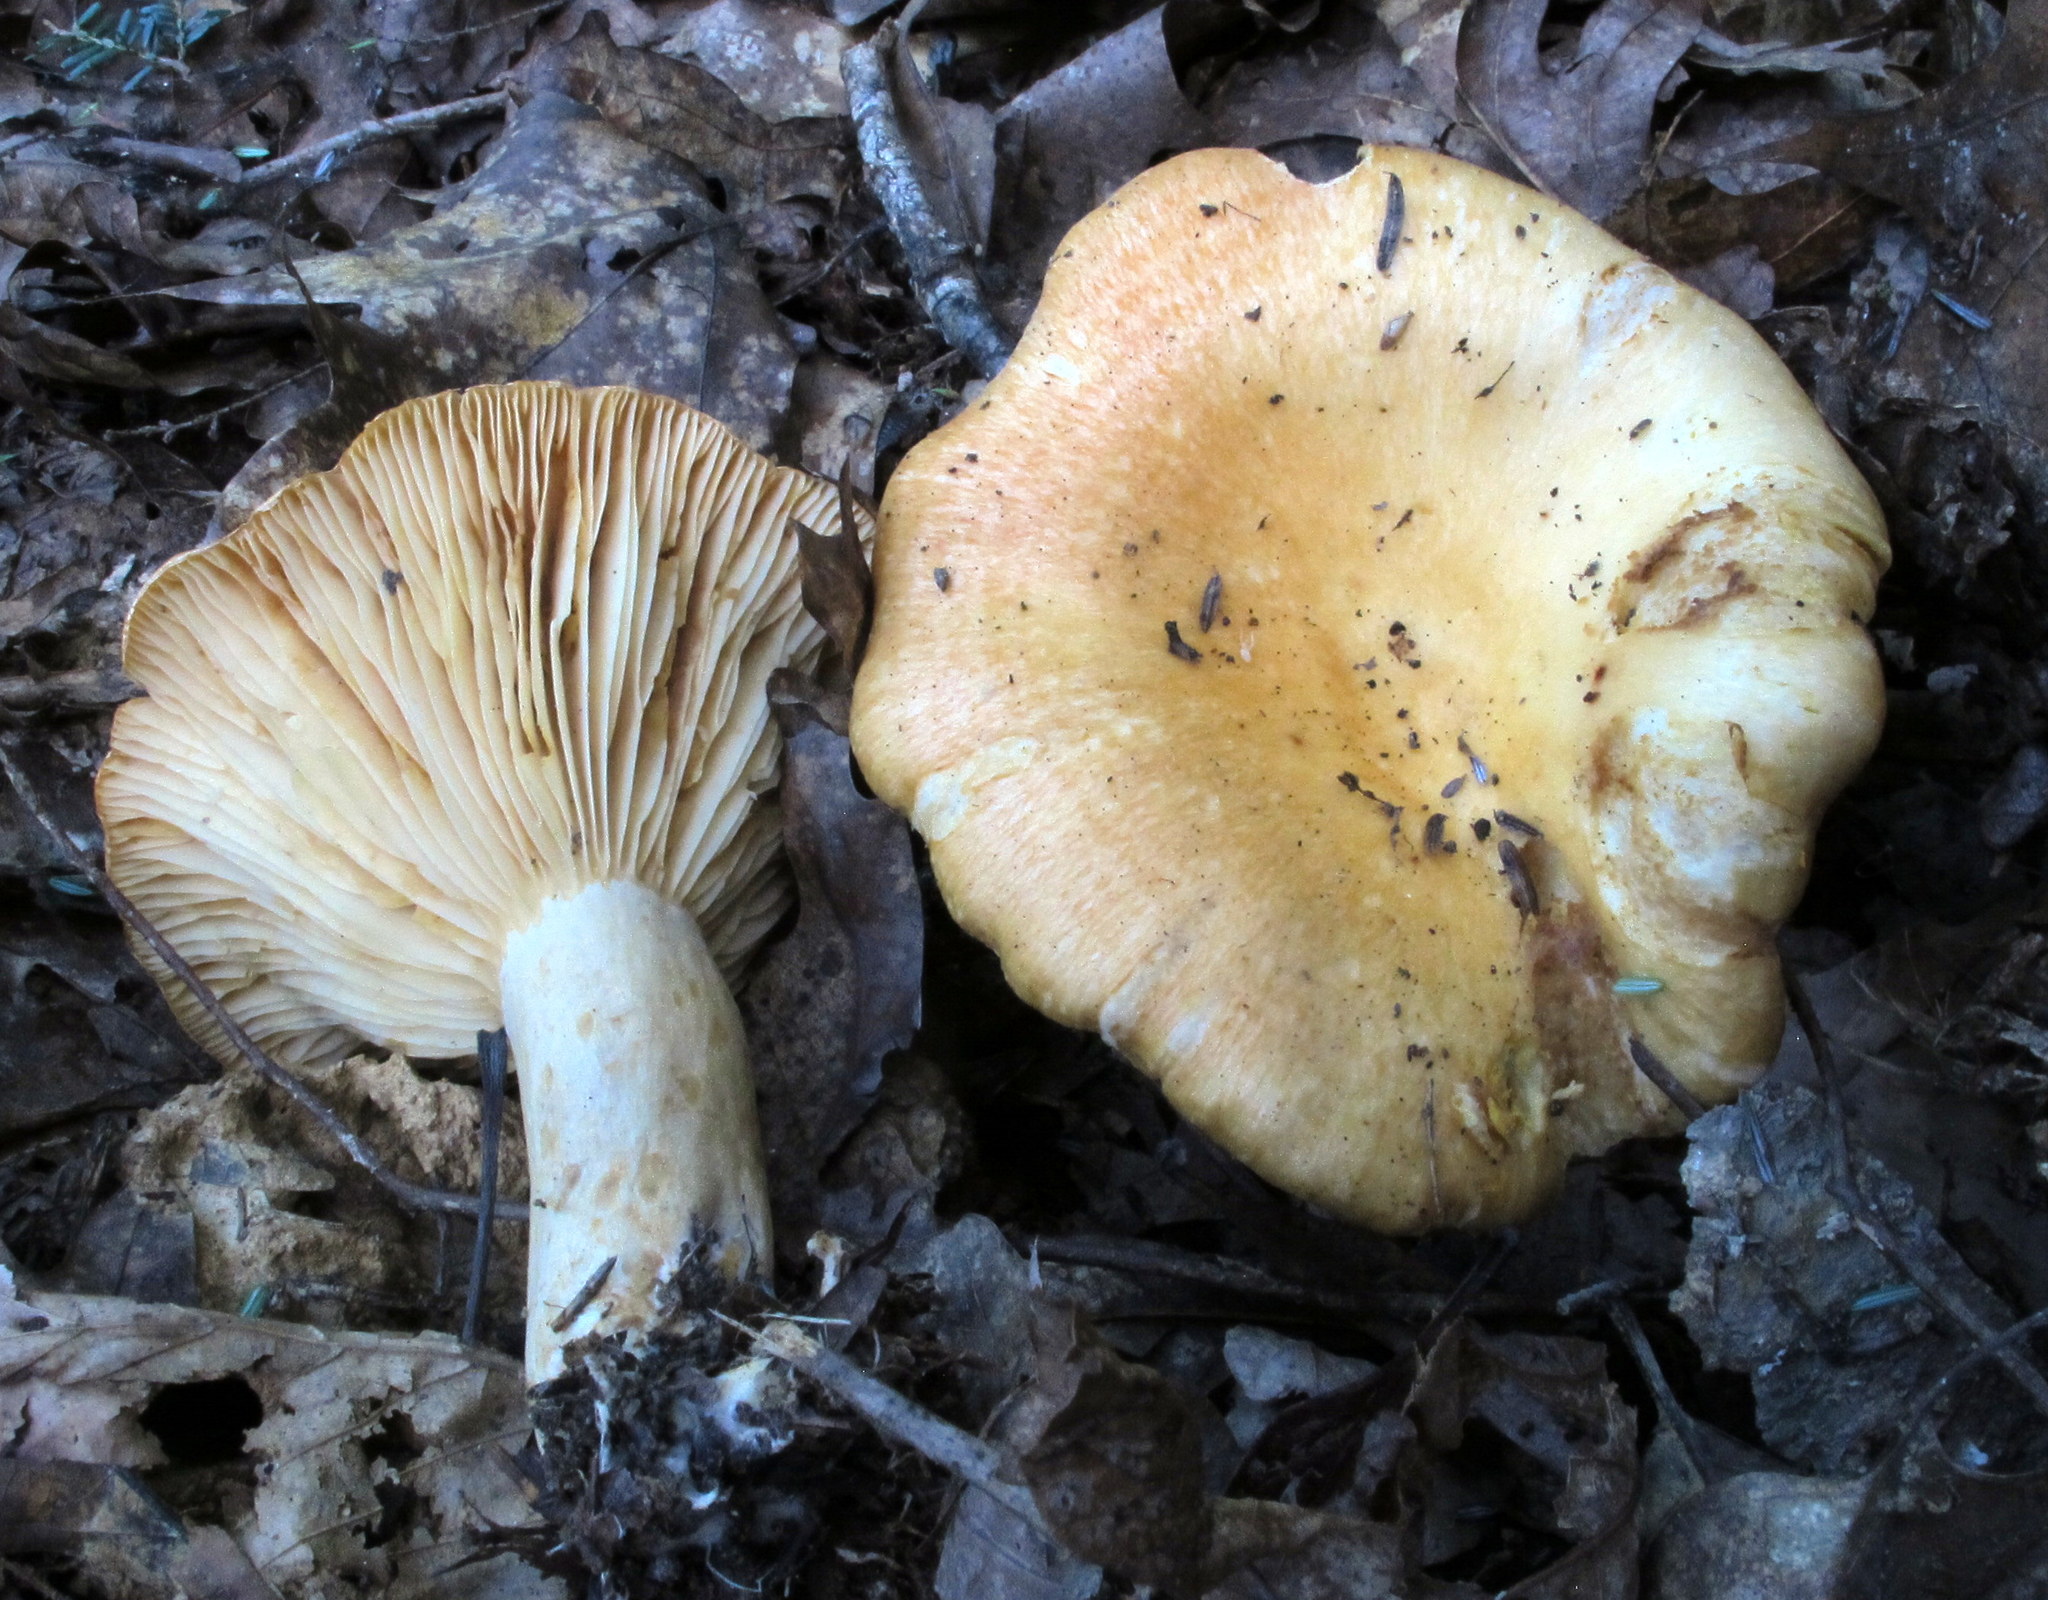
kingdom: Fungi
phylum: Basidiomycota
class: Agaricomycetes
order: Russulales
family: Russulaceae
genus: Lactarius
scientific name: Lactarius psammicola
